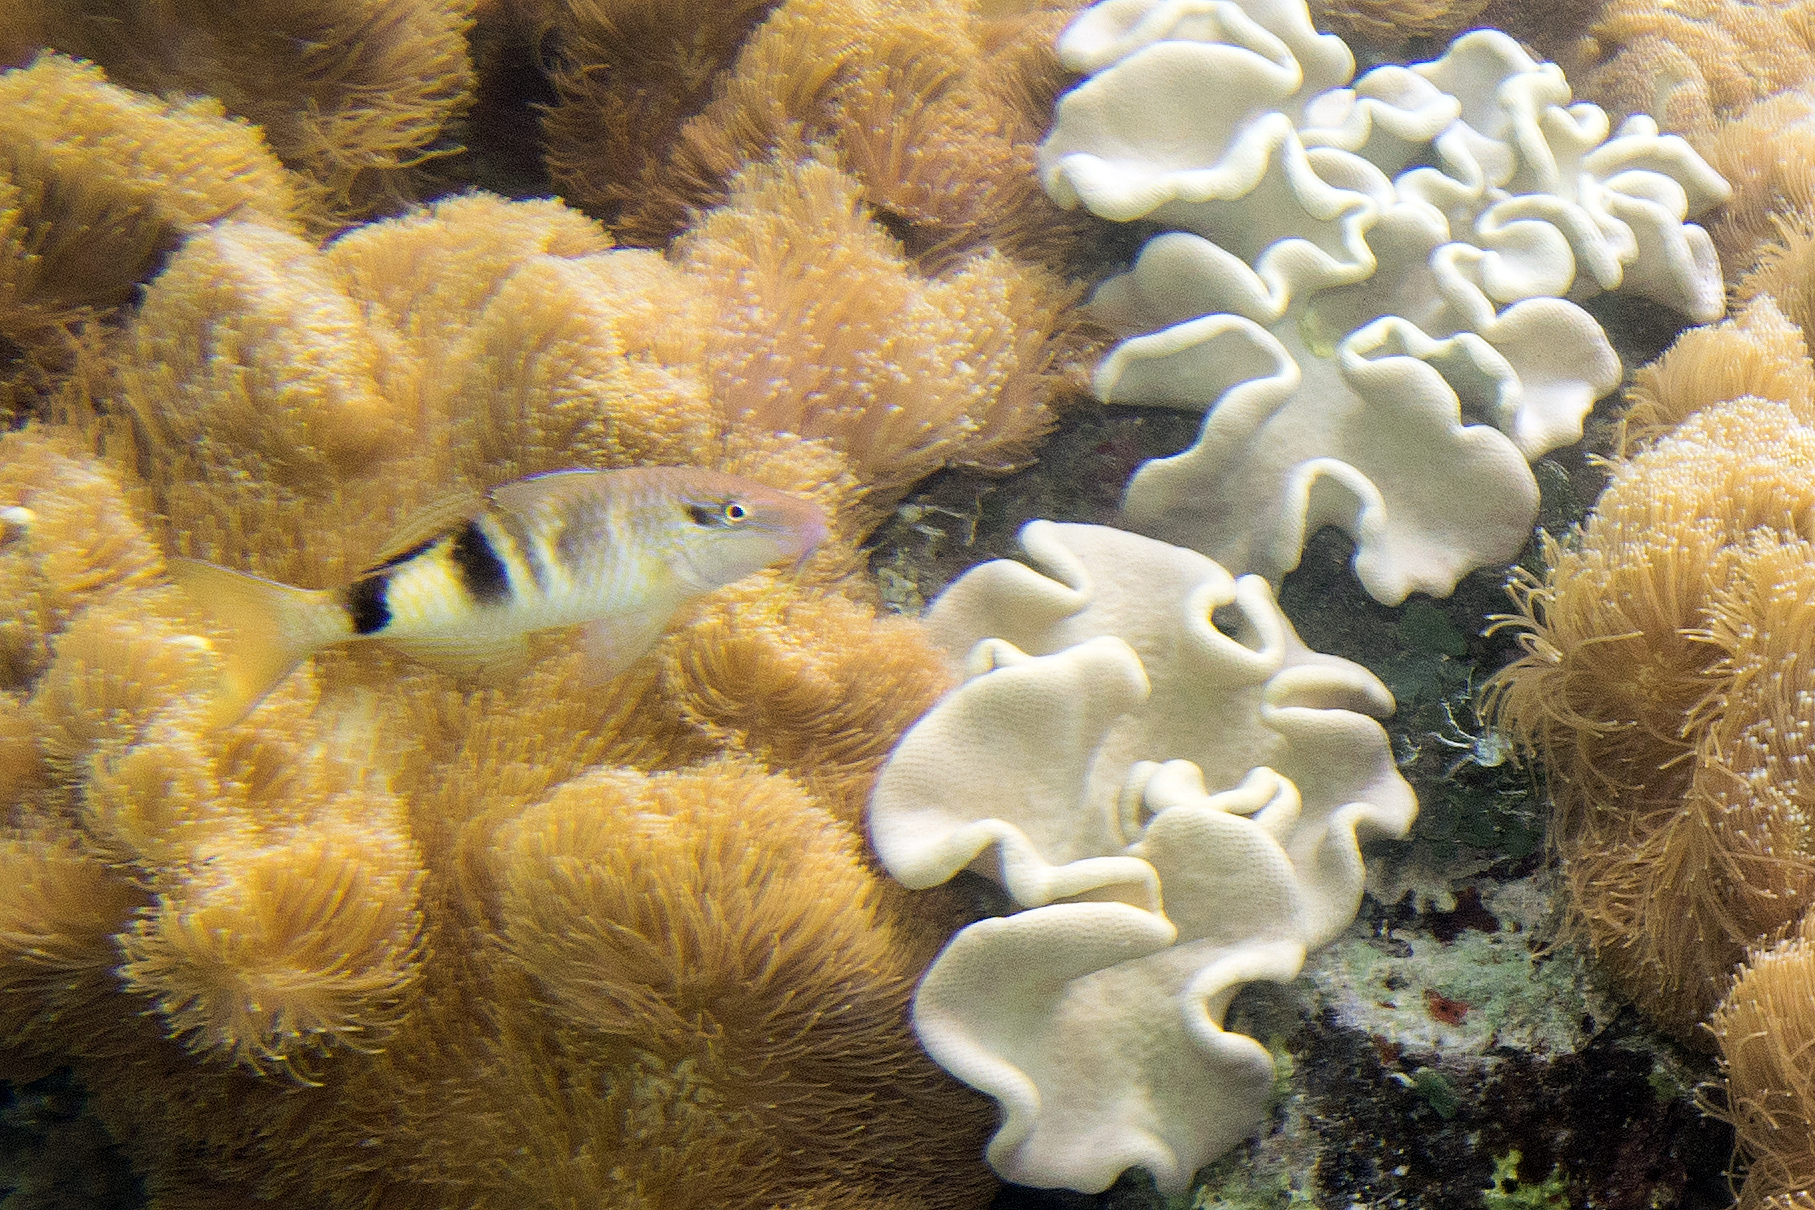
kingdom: Animalia
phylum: Chordata
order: Perciformes
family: Mullidae
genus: Parupeneus
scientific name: Parupeneus multifasciatus
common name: Manybar goatfish
